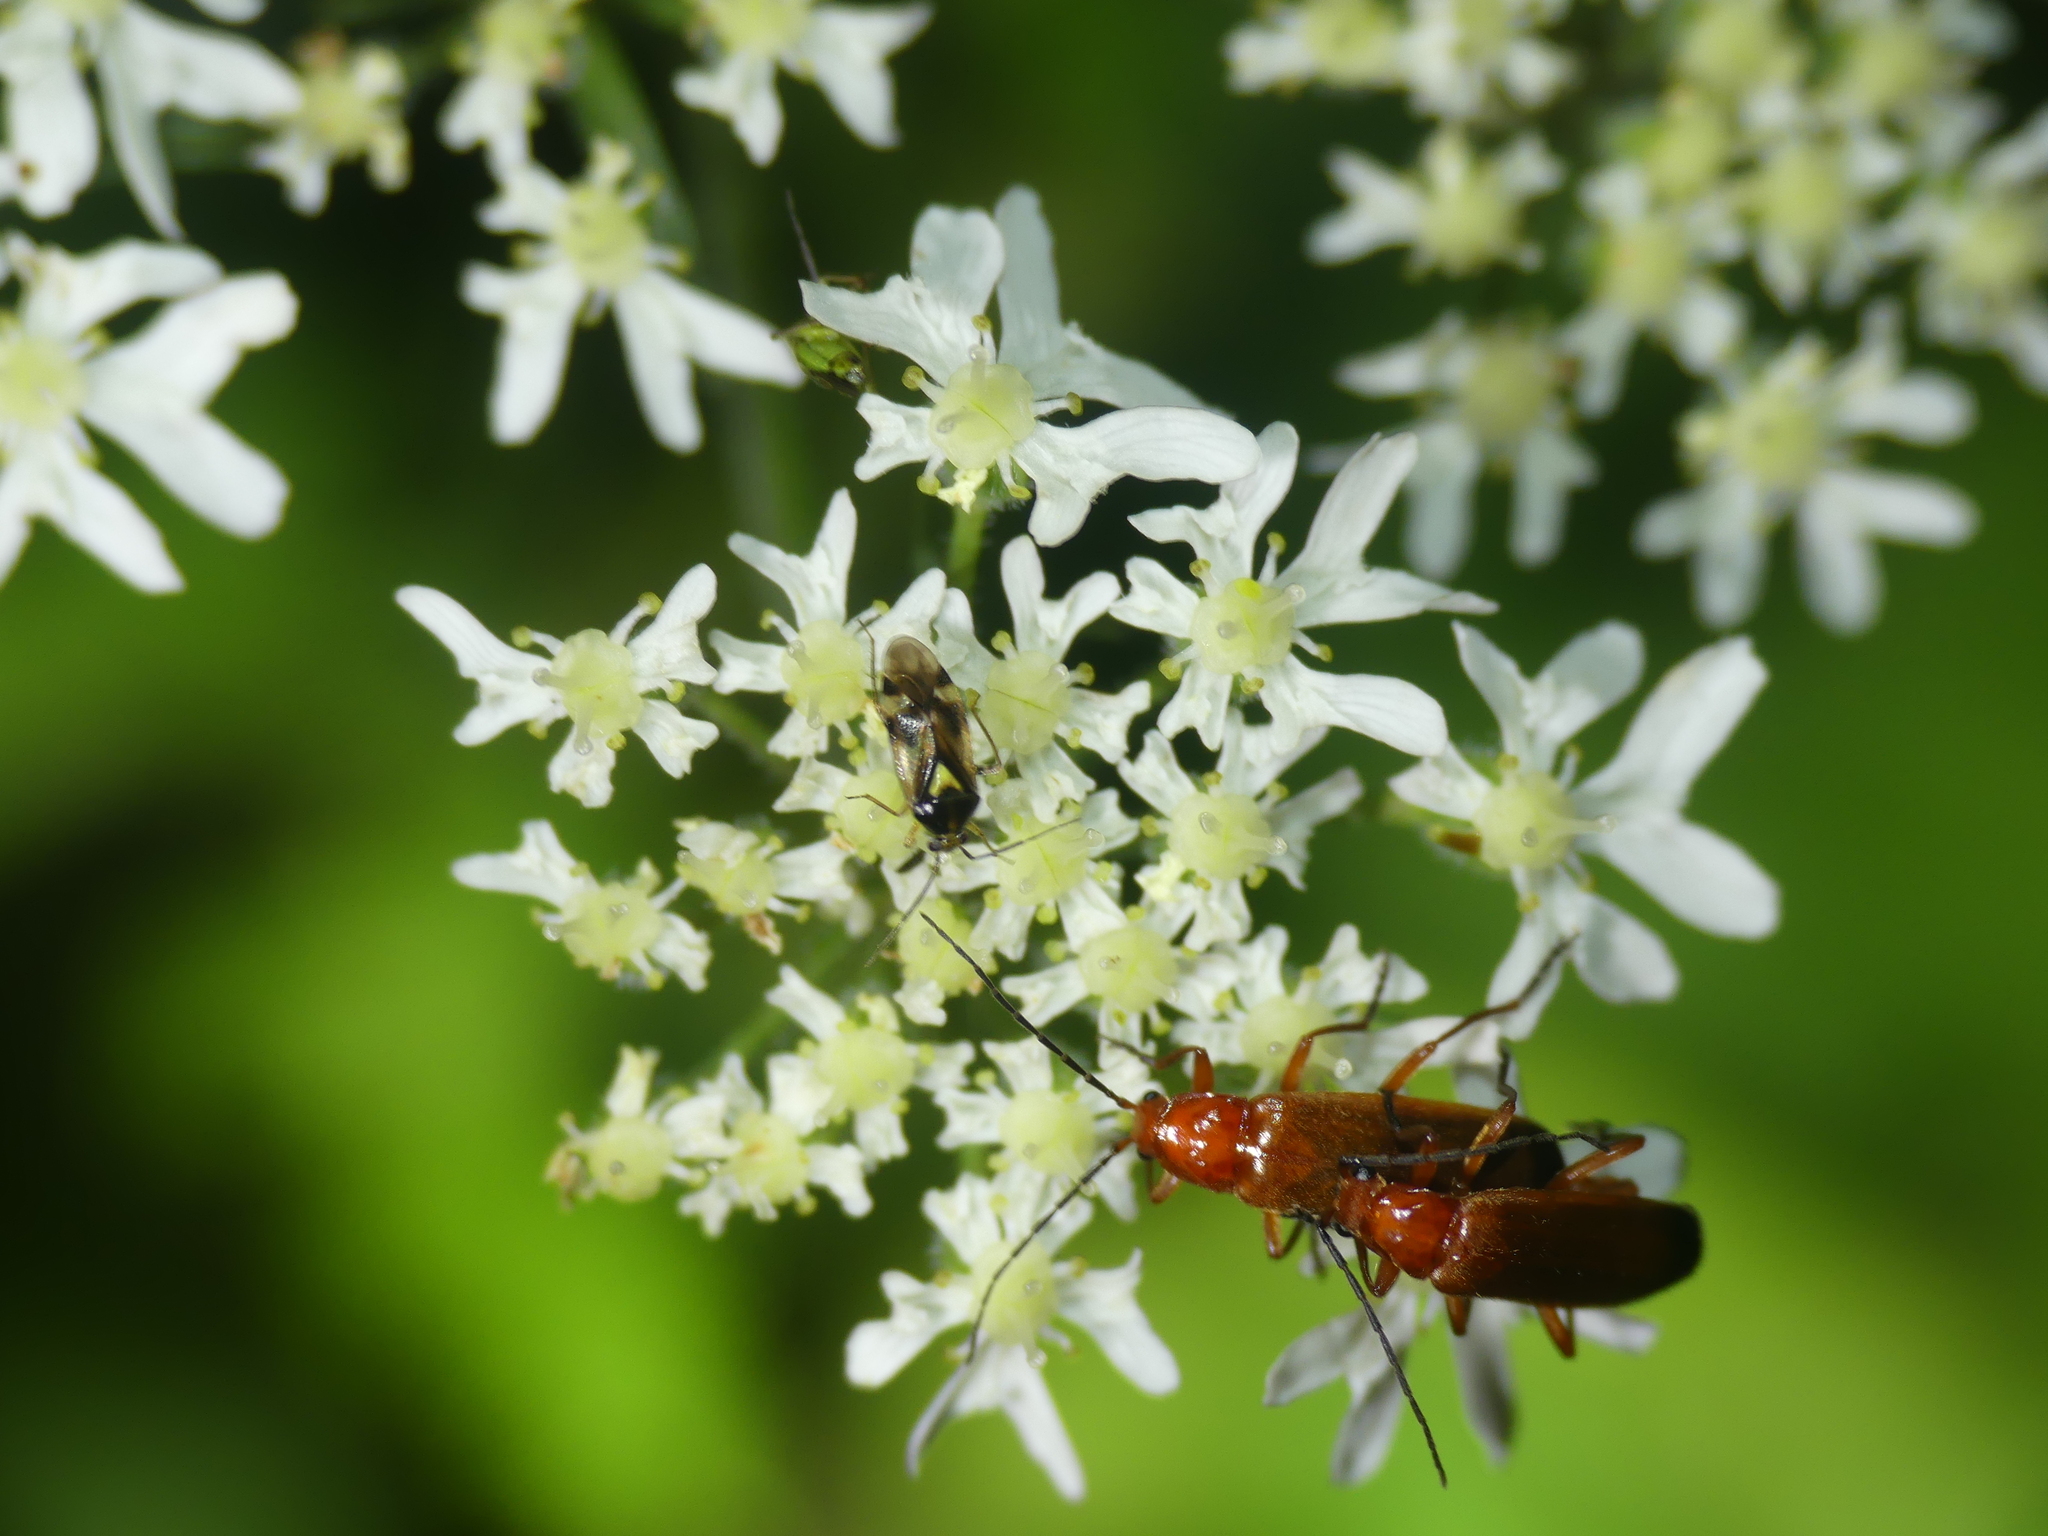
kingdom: Animalia
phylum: Arthropoda
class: Insecta
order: Coleoptera
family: Cantharidae
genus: Rhagonycha
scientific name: Rhagonycha fulva
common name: Common red soldier beetle
